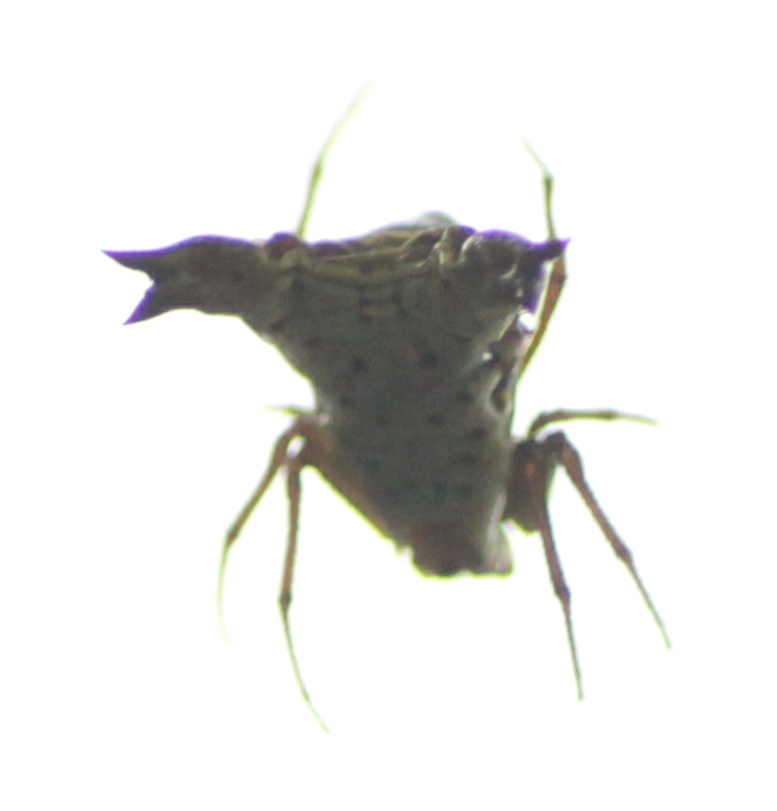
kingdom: Animalia
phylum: Arthropoda
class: Arachnida
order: Araneae
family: Araneidae
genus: Micrathena
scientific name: Micrathena lucasi
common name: Orb weavers
